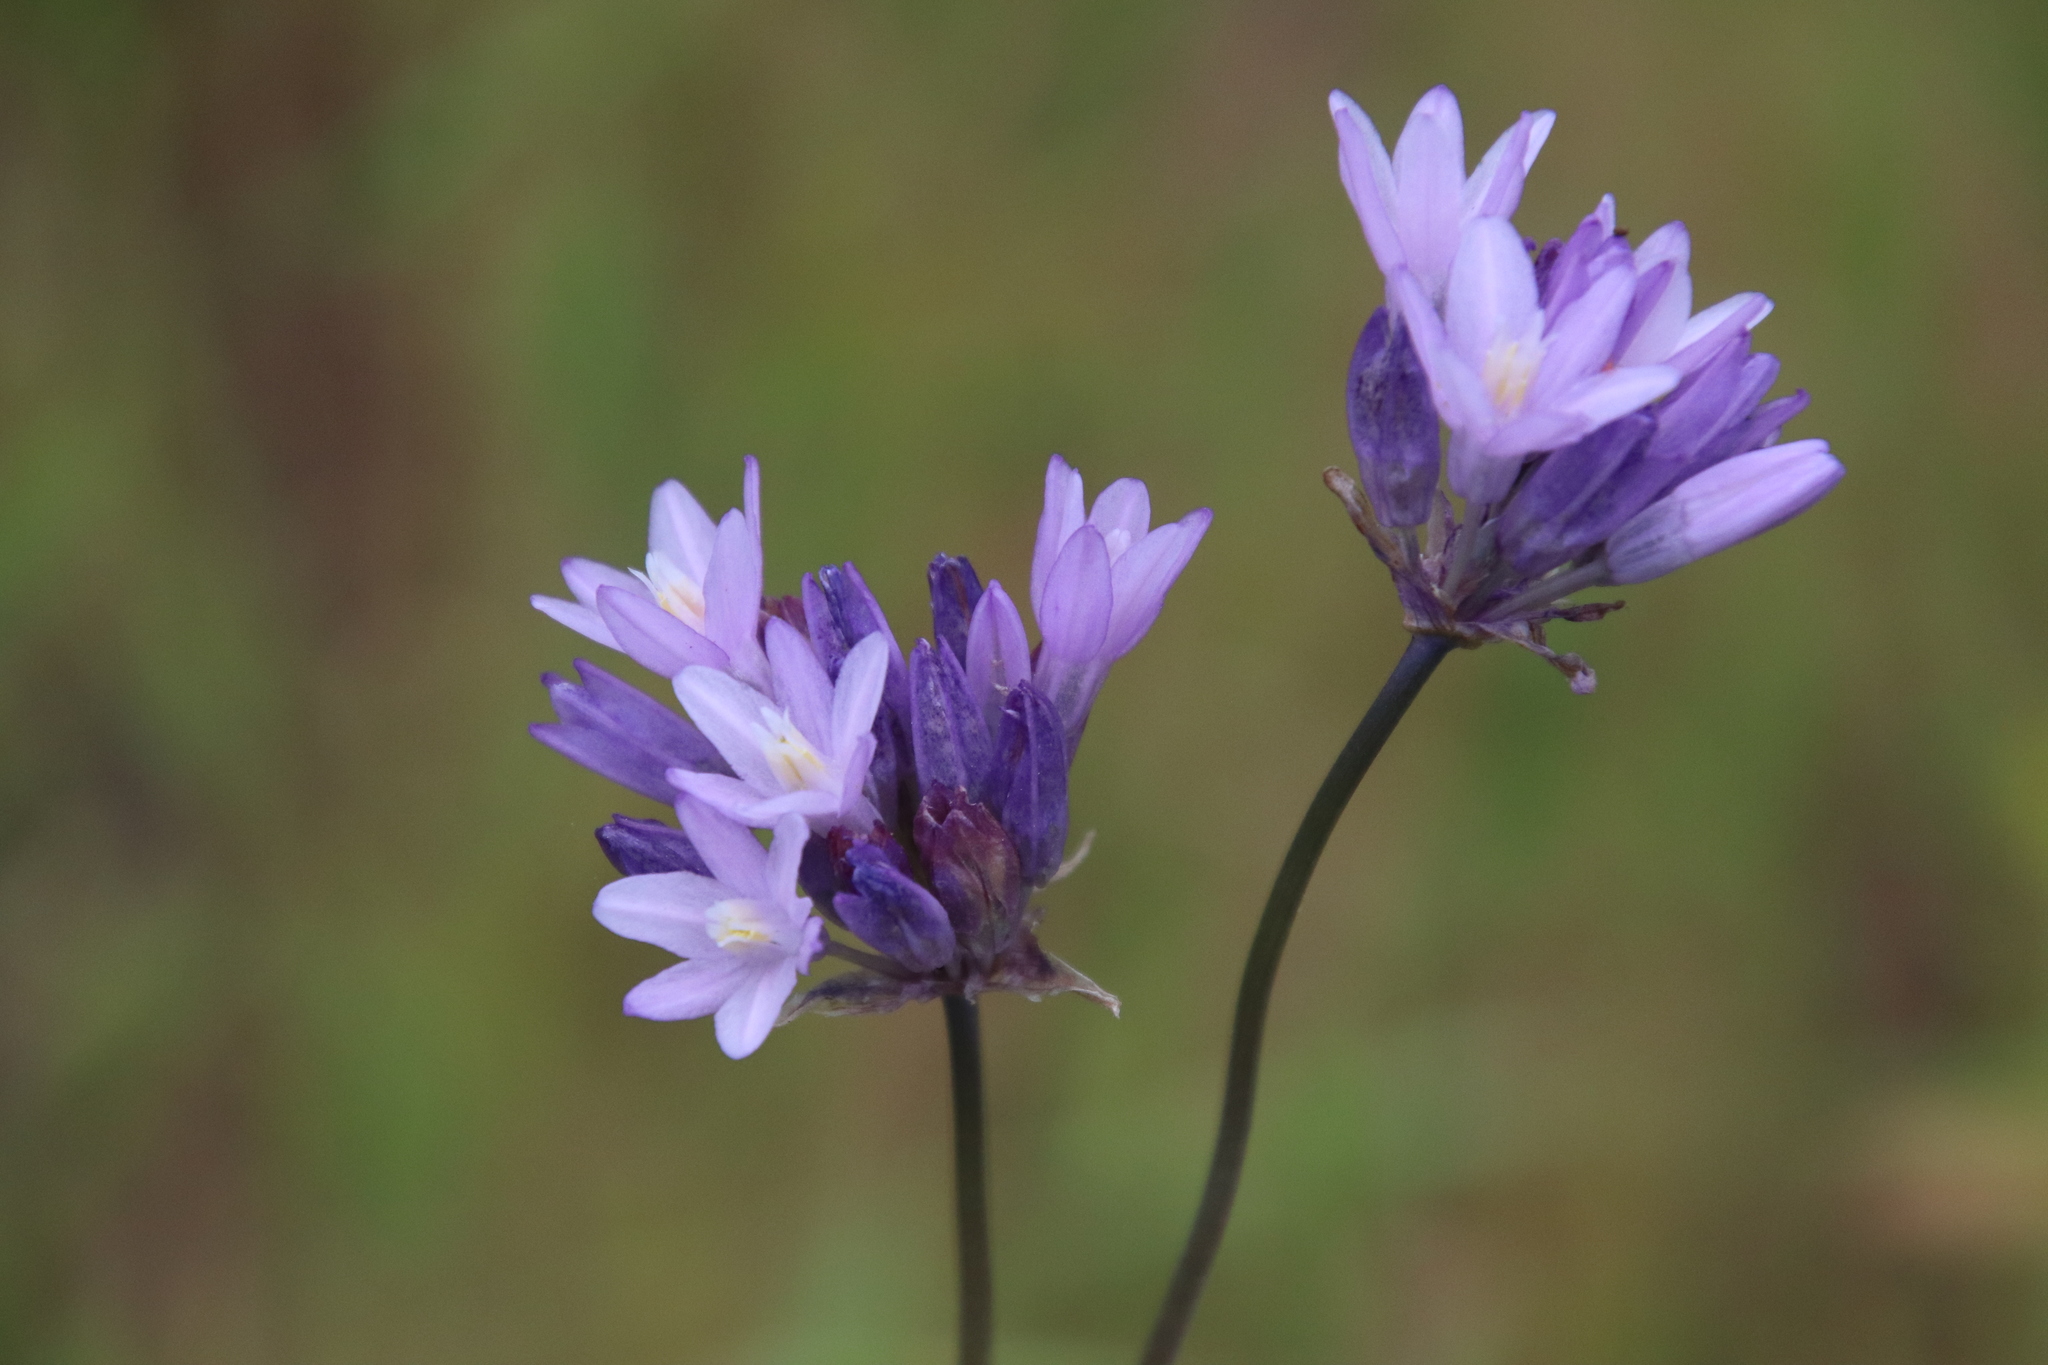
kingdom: Plantae
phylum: Tracheophyta
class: Liliopsida
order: Asparagales
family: Asparagaceae
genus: Dipterostemon
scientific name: Dipterostemon capitatus
